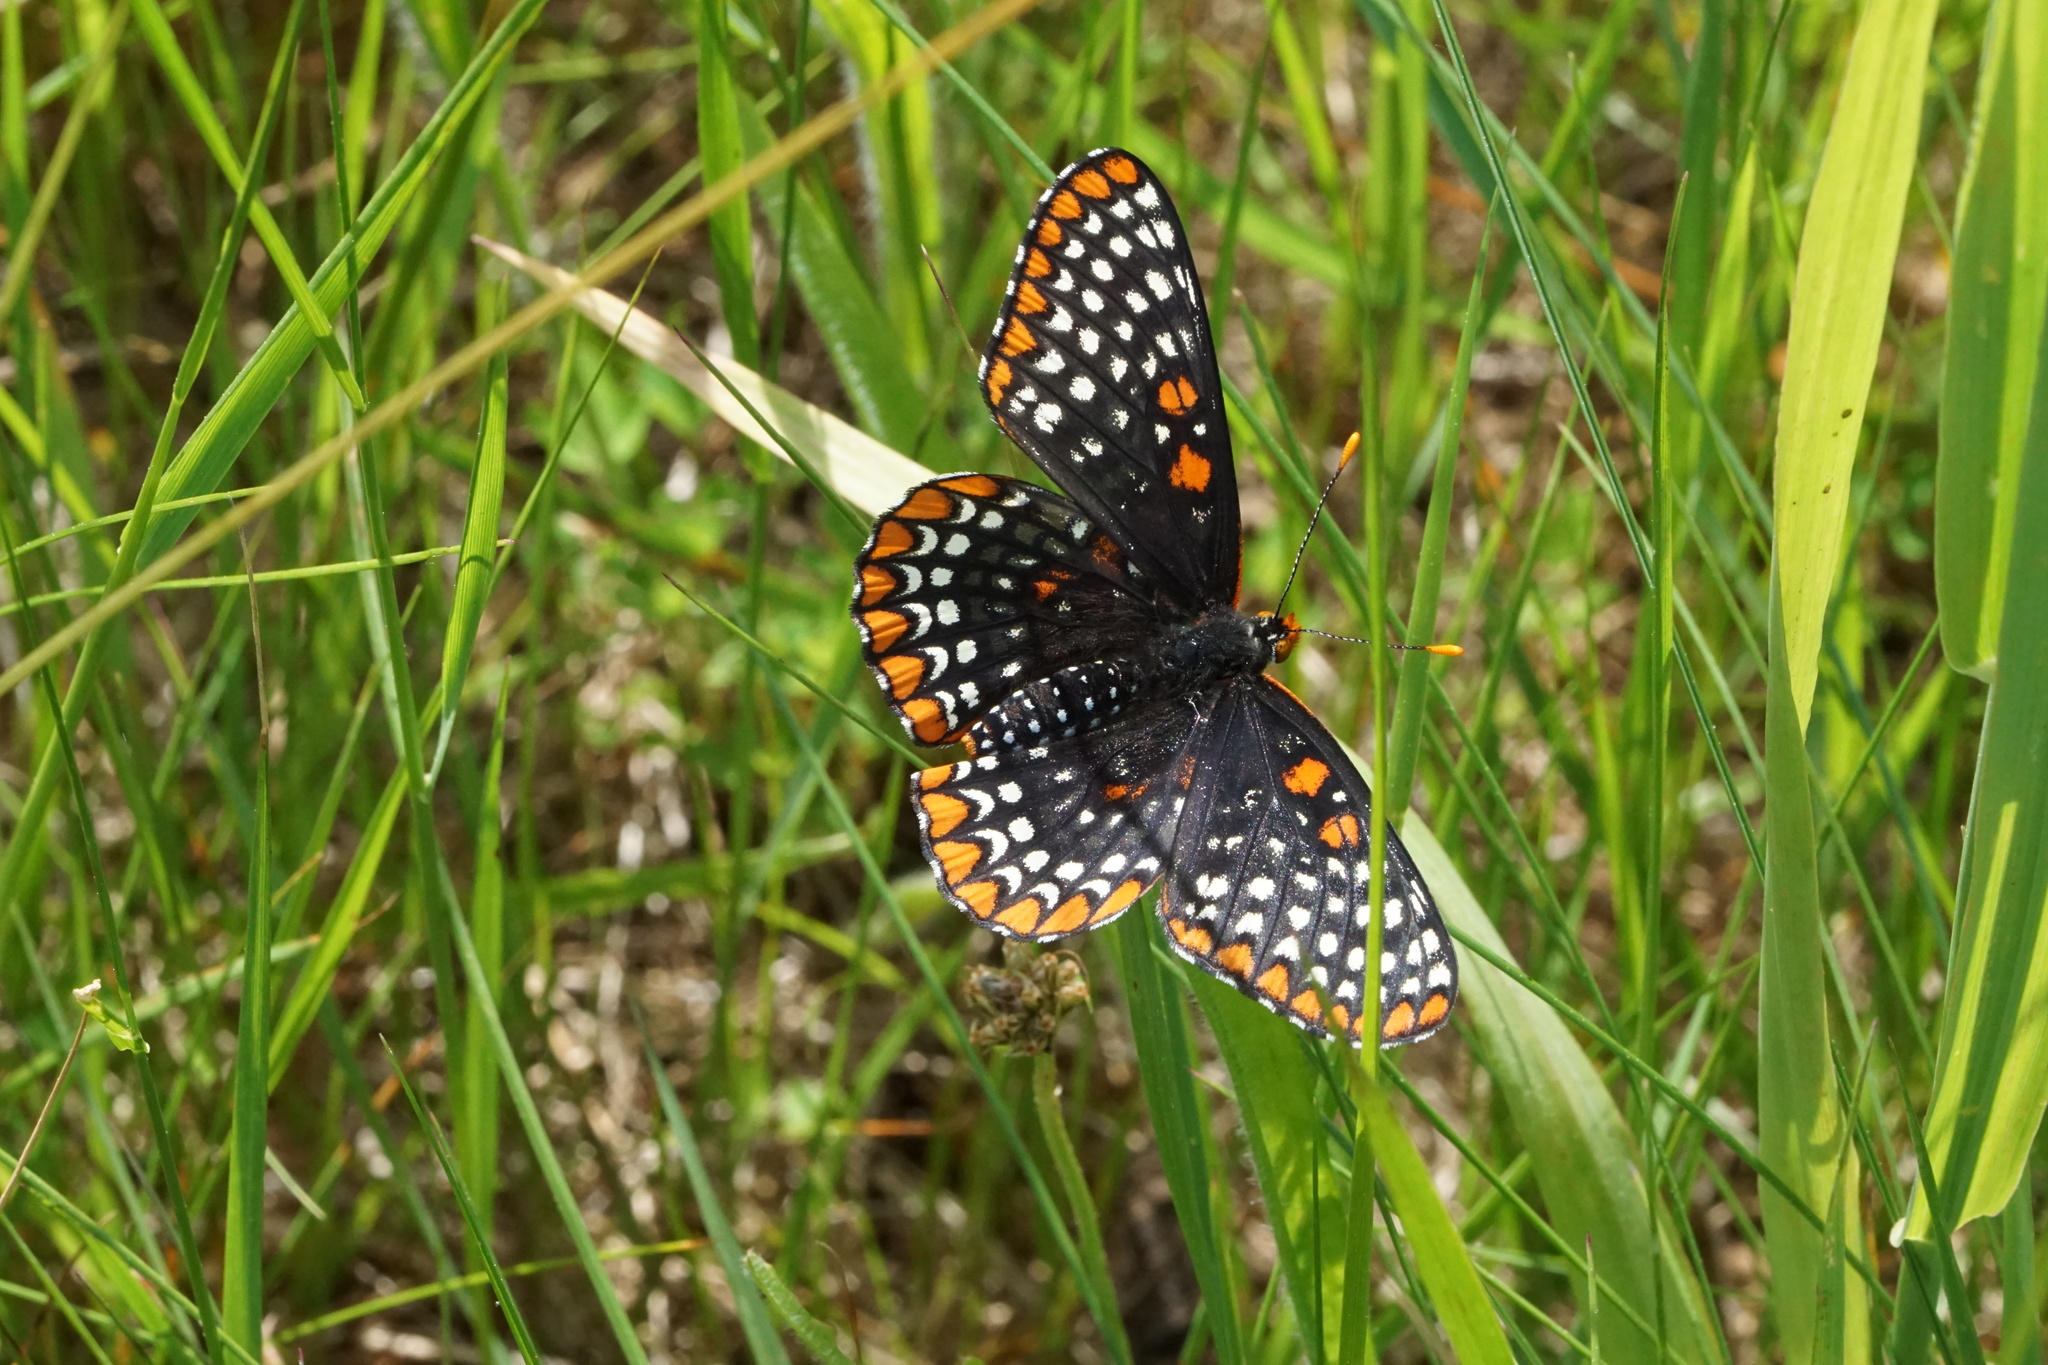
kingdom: Animalia
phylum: Arthropoda
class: Insecta
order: Lepidoptera
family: Nymphalidae
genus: Euphydryas
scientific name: Euphydryas phaeton
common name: Baltimore checkerspot
